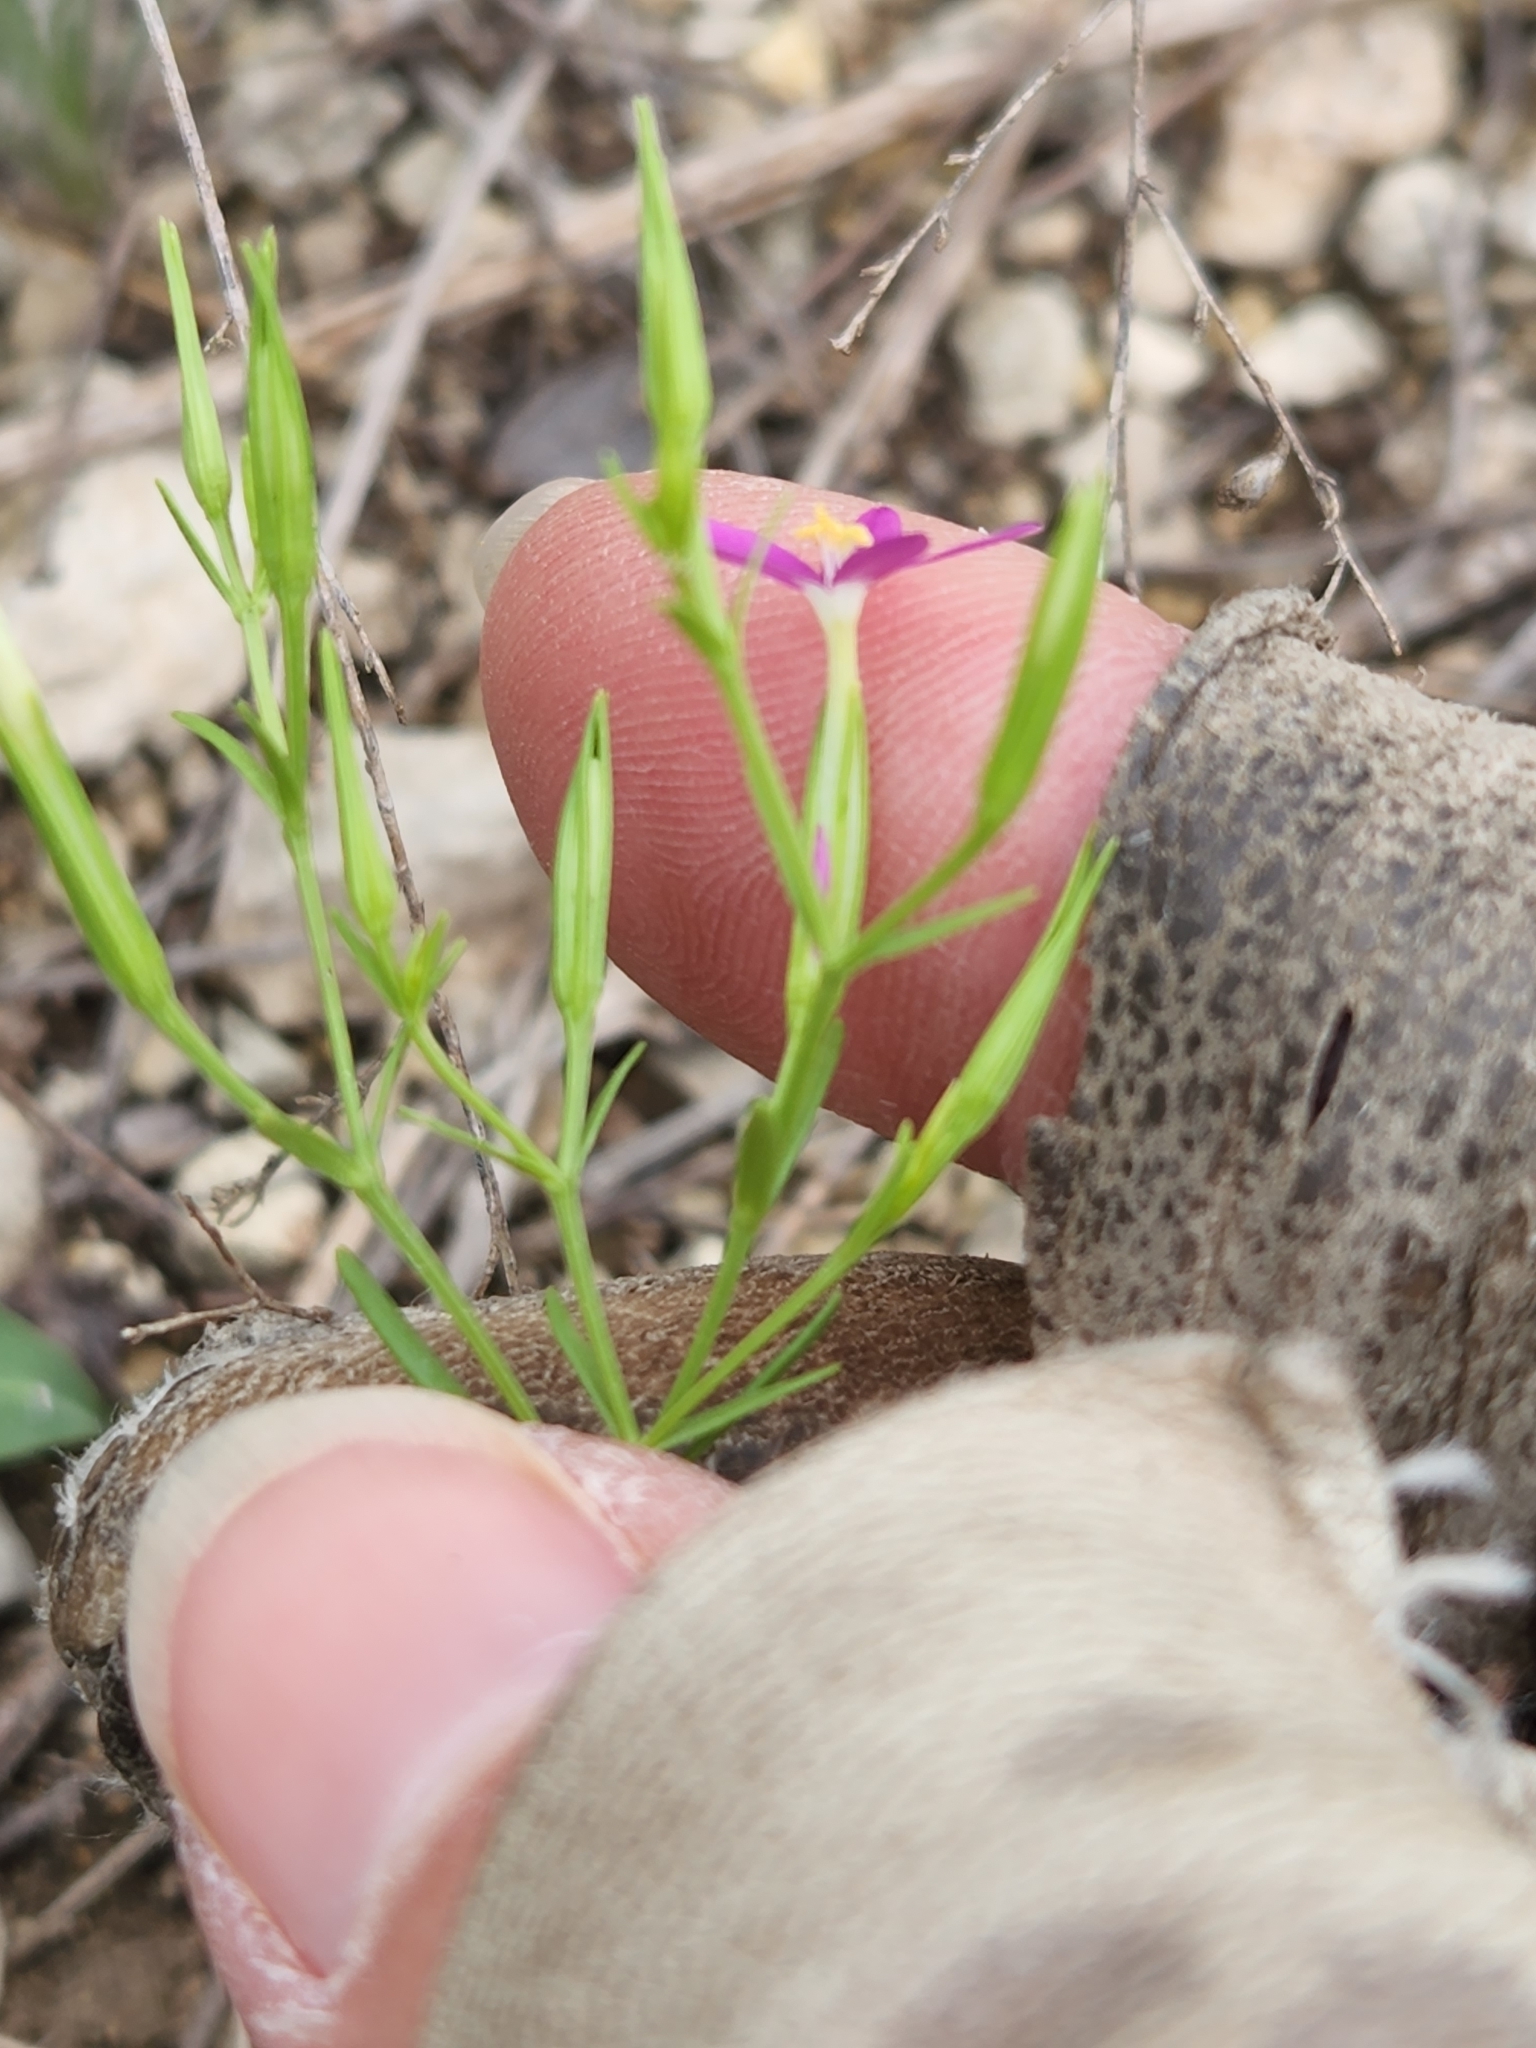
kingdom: Plantae
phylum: Tracheophyta
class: Magnoliopsida
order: Gentianales
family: Gentianaceae
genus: Zeltnera
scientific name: Zeltnera texensis
